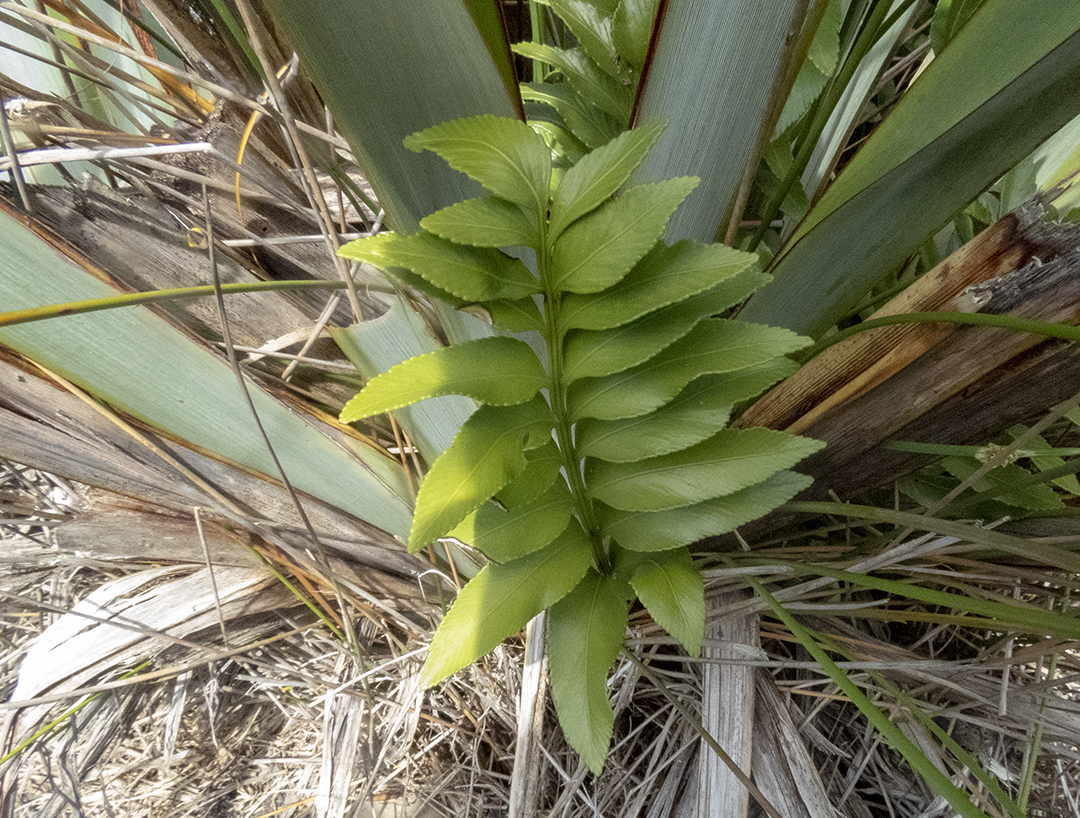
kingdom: Plantae
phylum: Tracheophyta
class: Polypodiopsida
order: Polypodiales
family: Aspleniaceae
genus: Asplenium
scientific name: Asplenium obtusatum
